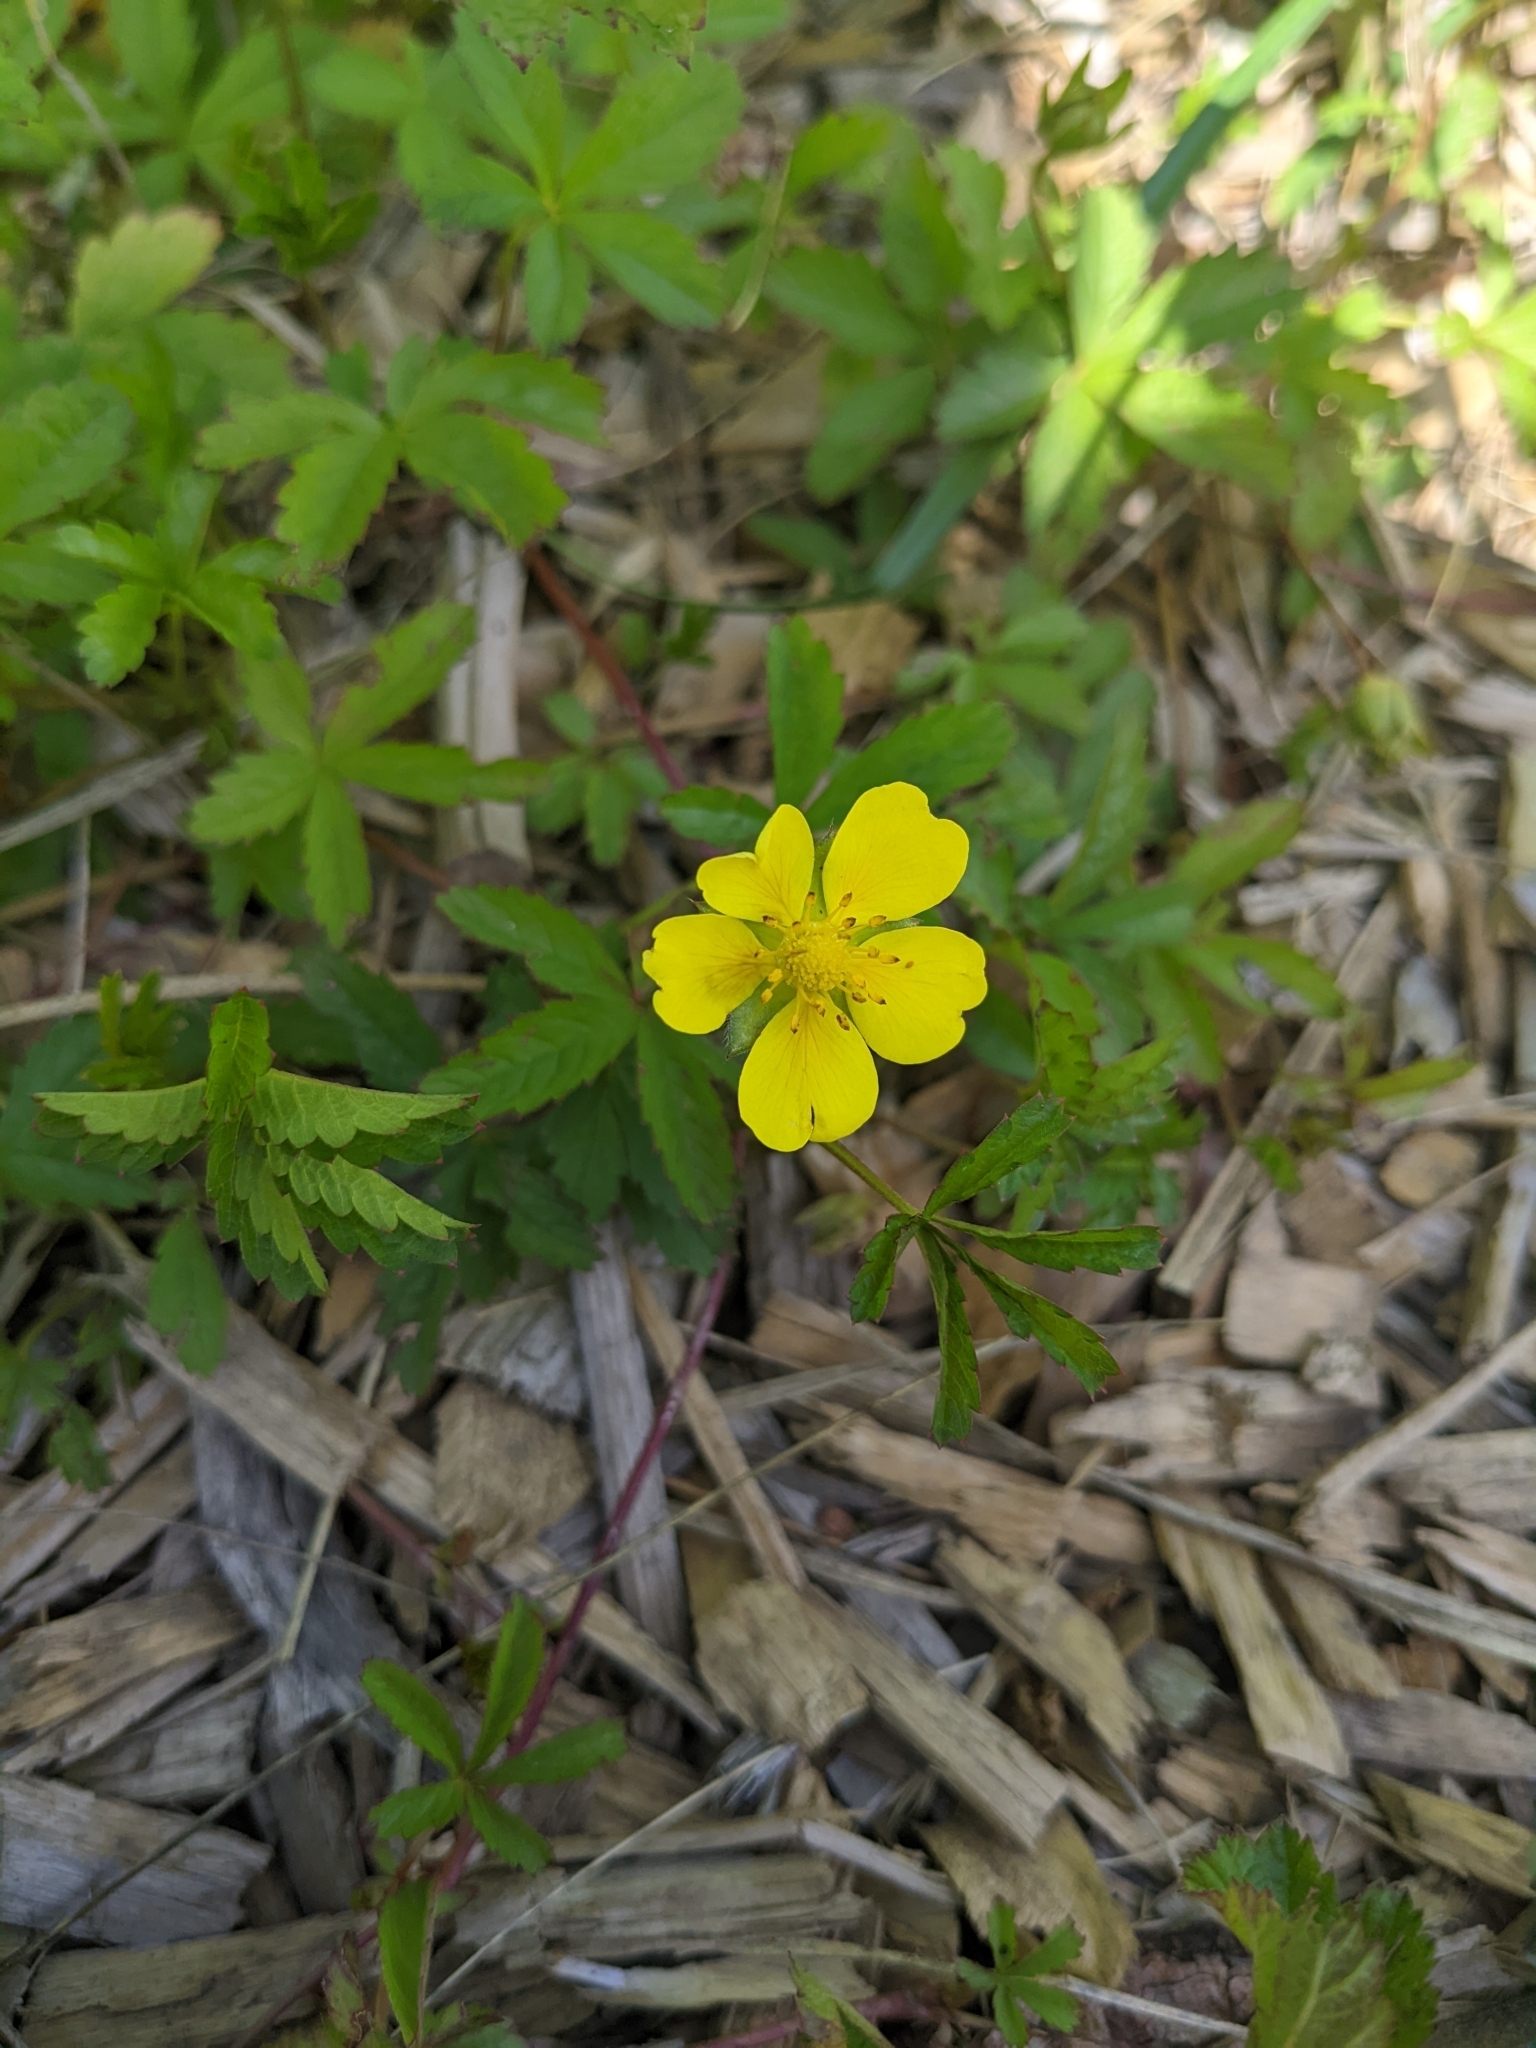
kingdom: Plantae
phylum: Tracheophyta
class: Magnoliopsida
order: Rosales
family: Rosaceae
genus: Potentilla
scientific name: Potentilla reptans
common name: Creeping cinquefoil
